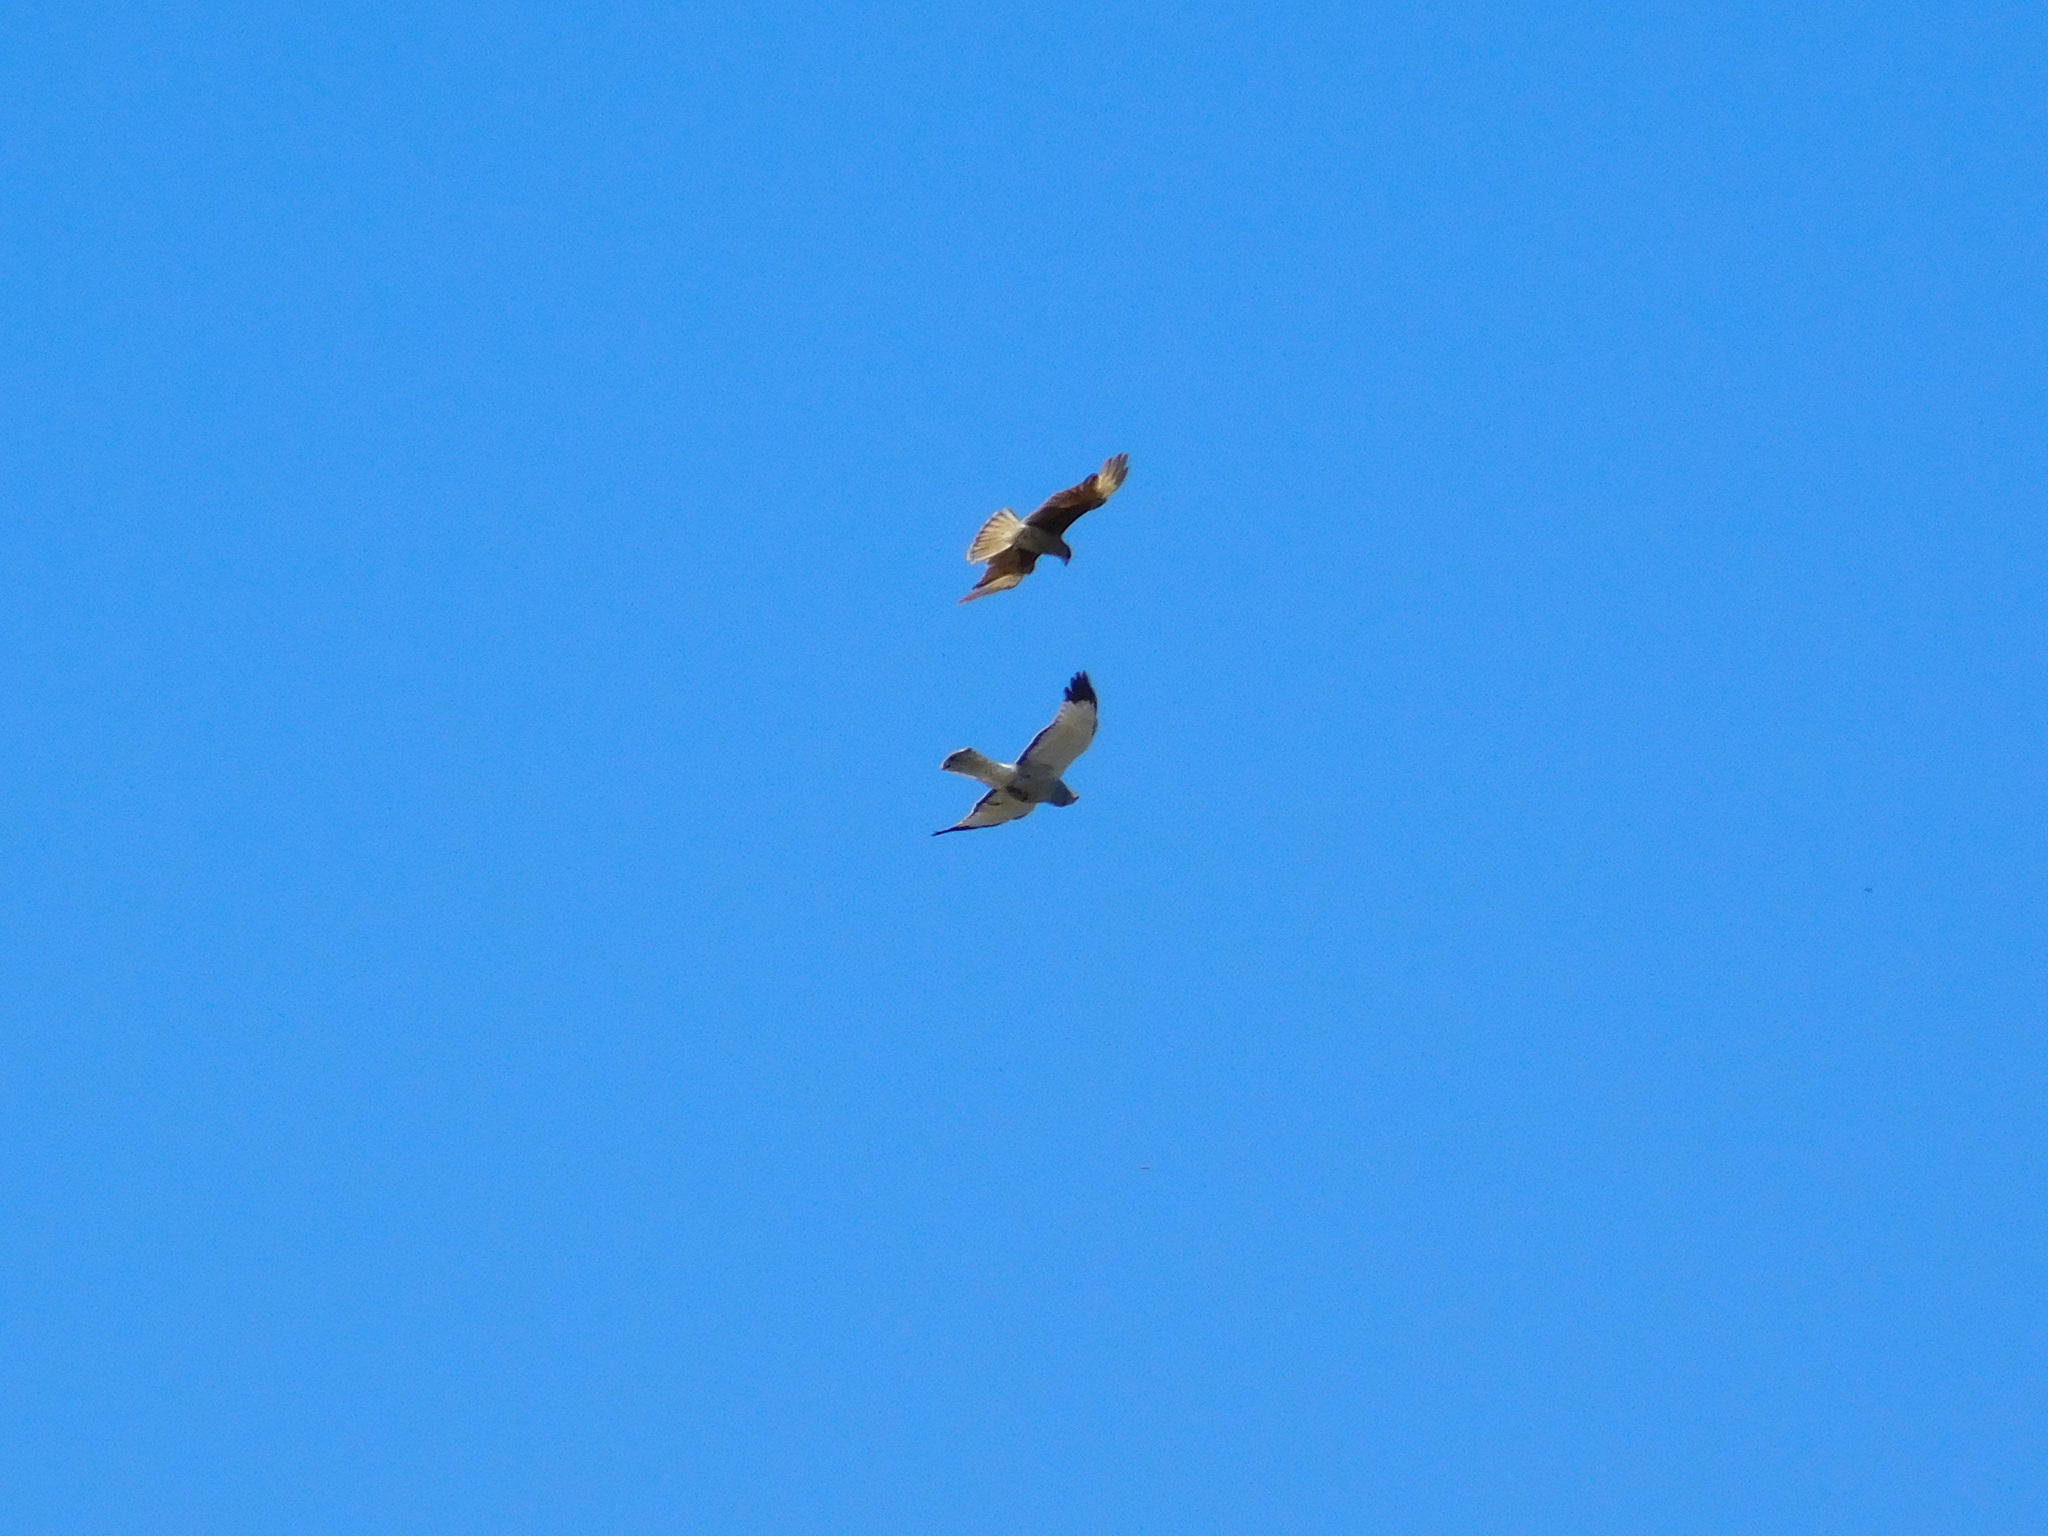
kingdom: Animalia
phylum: Chordata
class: Aves
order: Accipitriformes
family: Accipitridae
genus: Circus
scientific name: Circus cinereus
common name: Cinereous harrier
